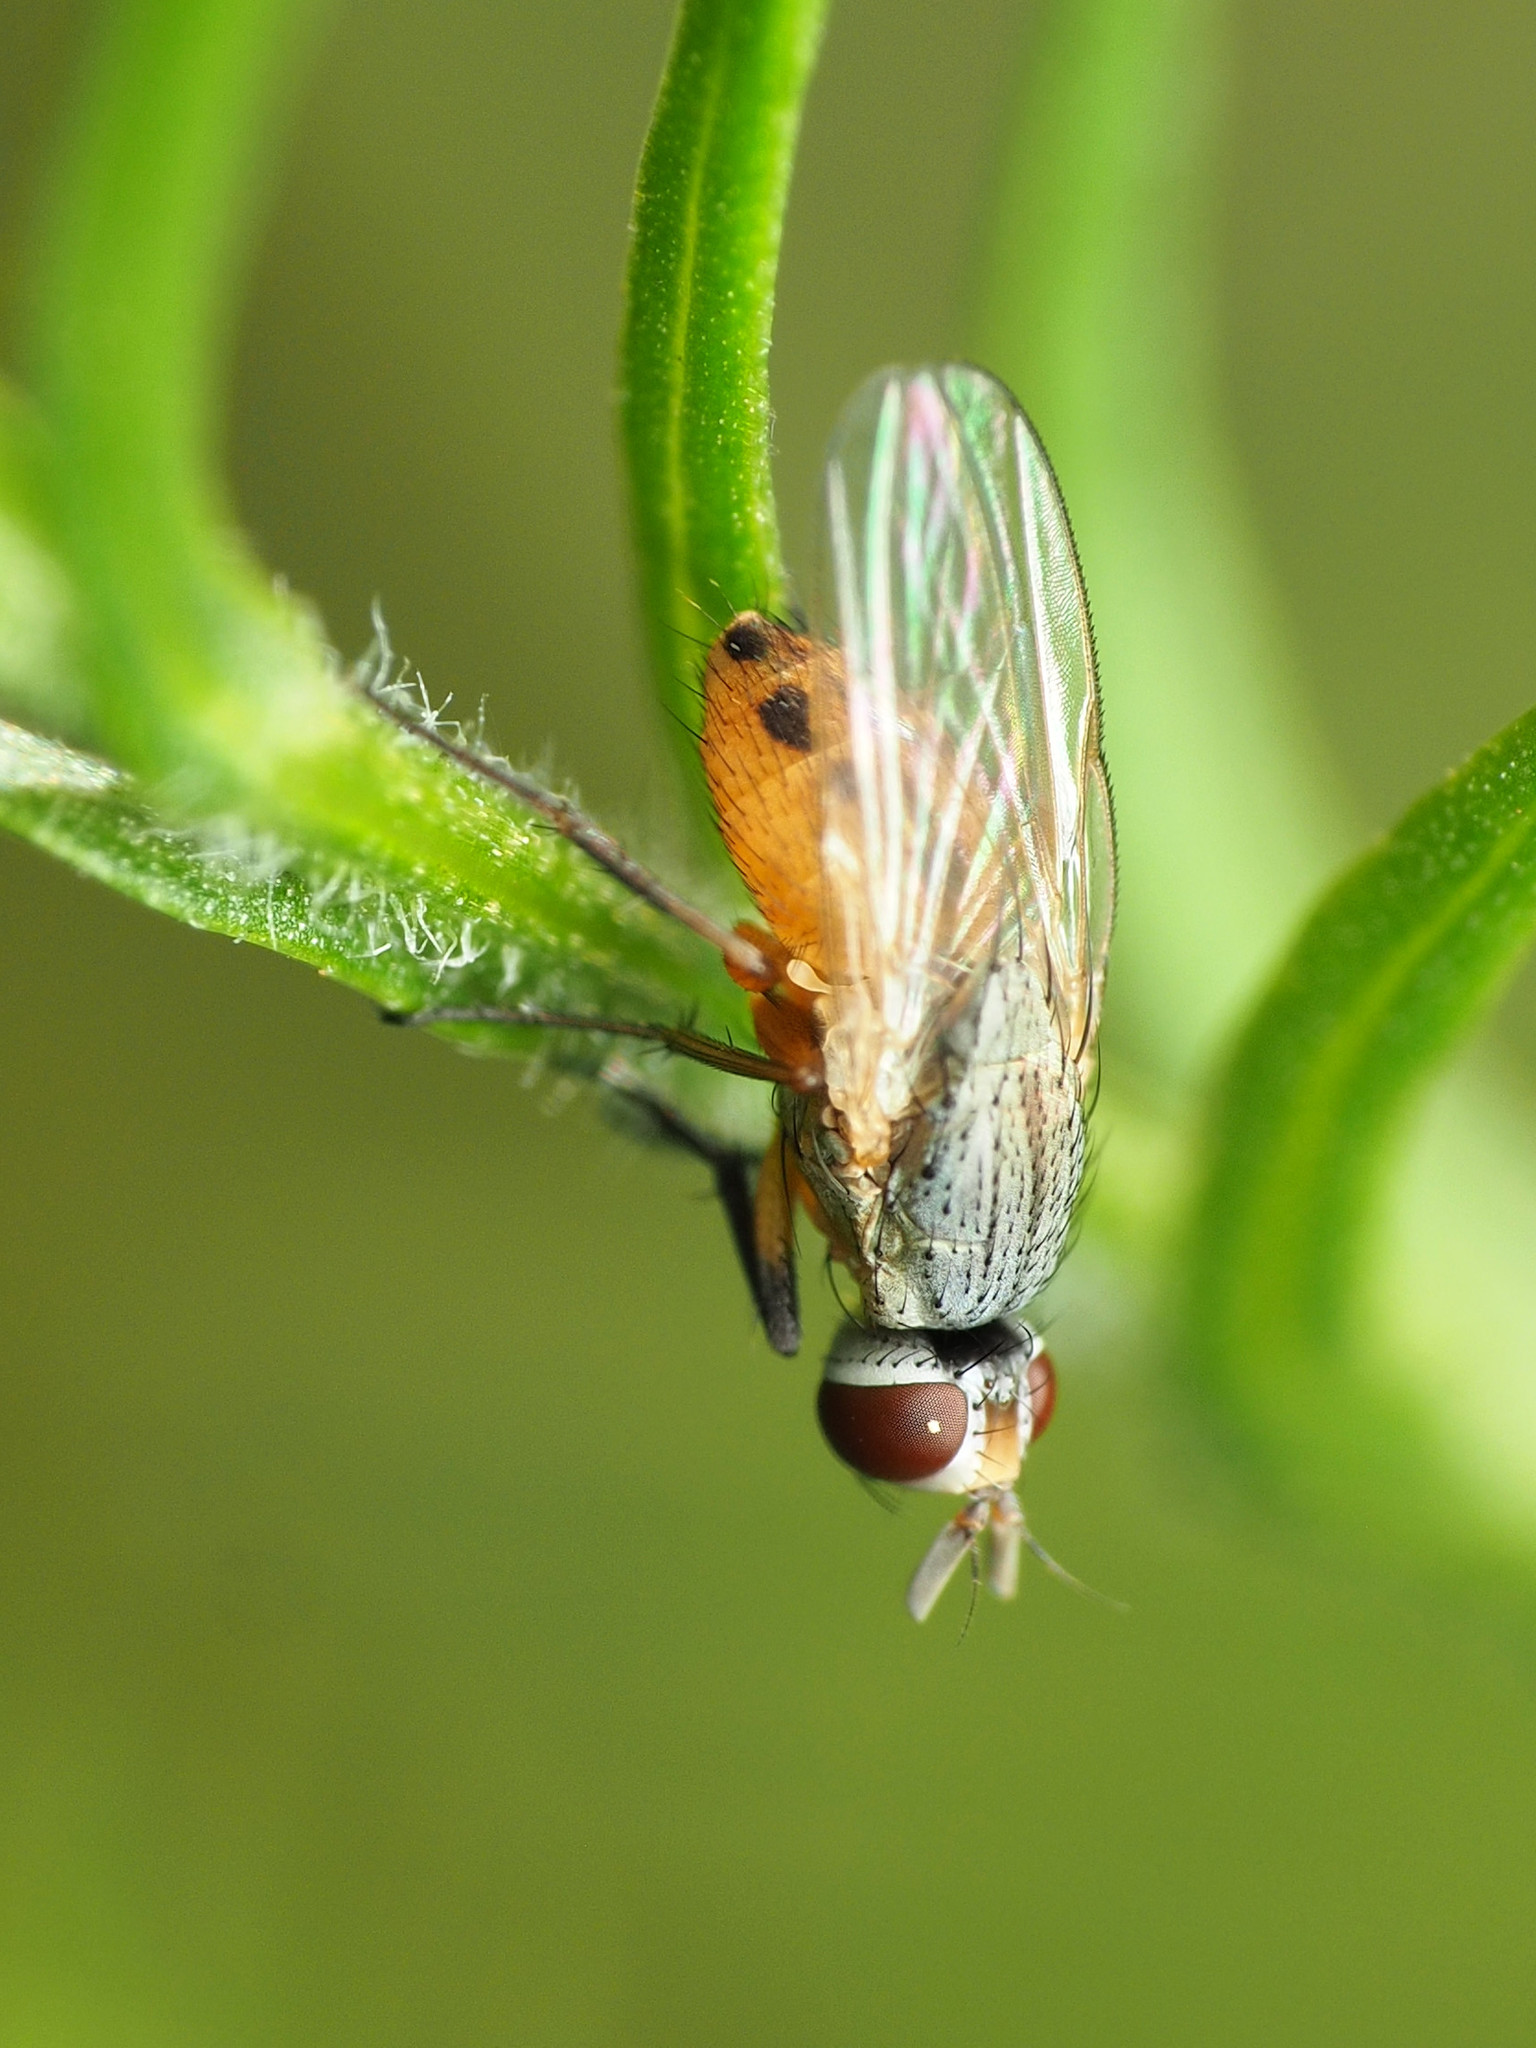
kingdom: Animalia
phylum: Arthropoda
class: Insecta
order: Diptera
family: Muscidae
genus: Atherigona
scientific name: Atherigona reversura
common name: Bermudagrass stem maggot
